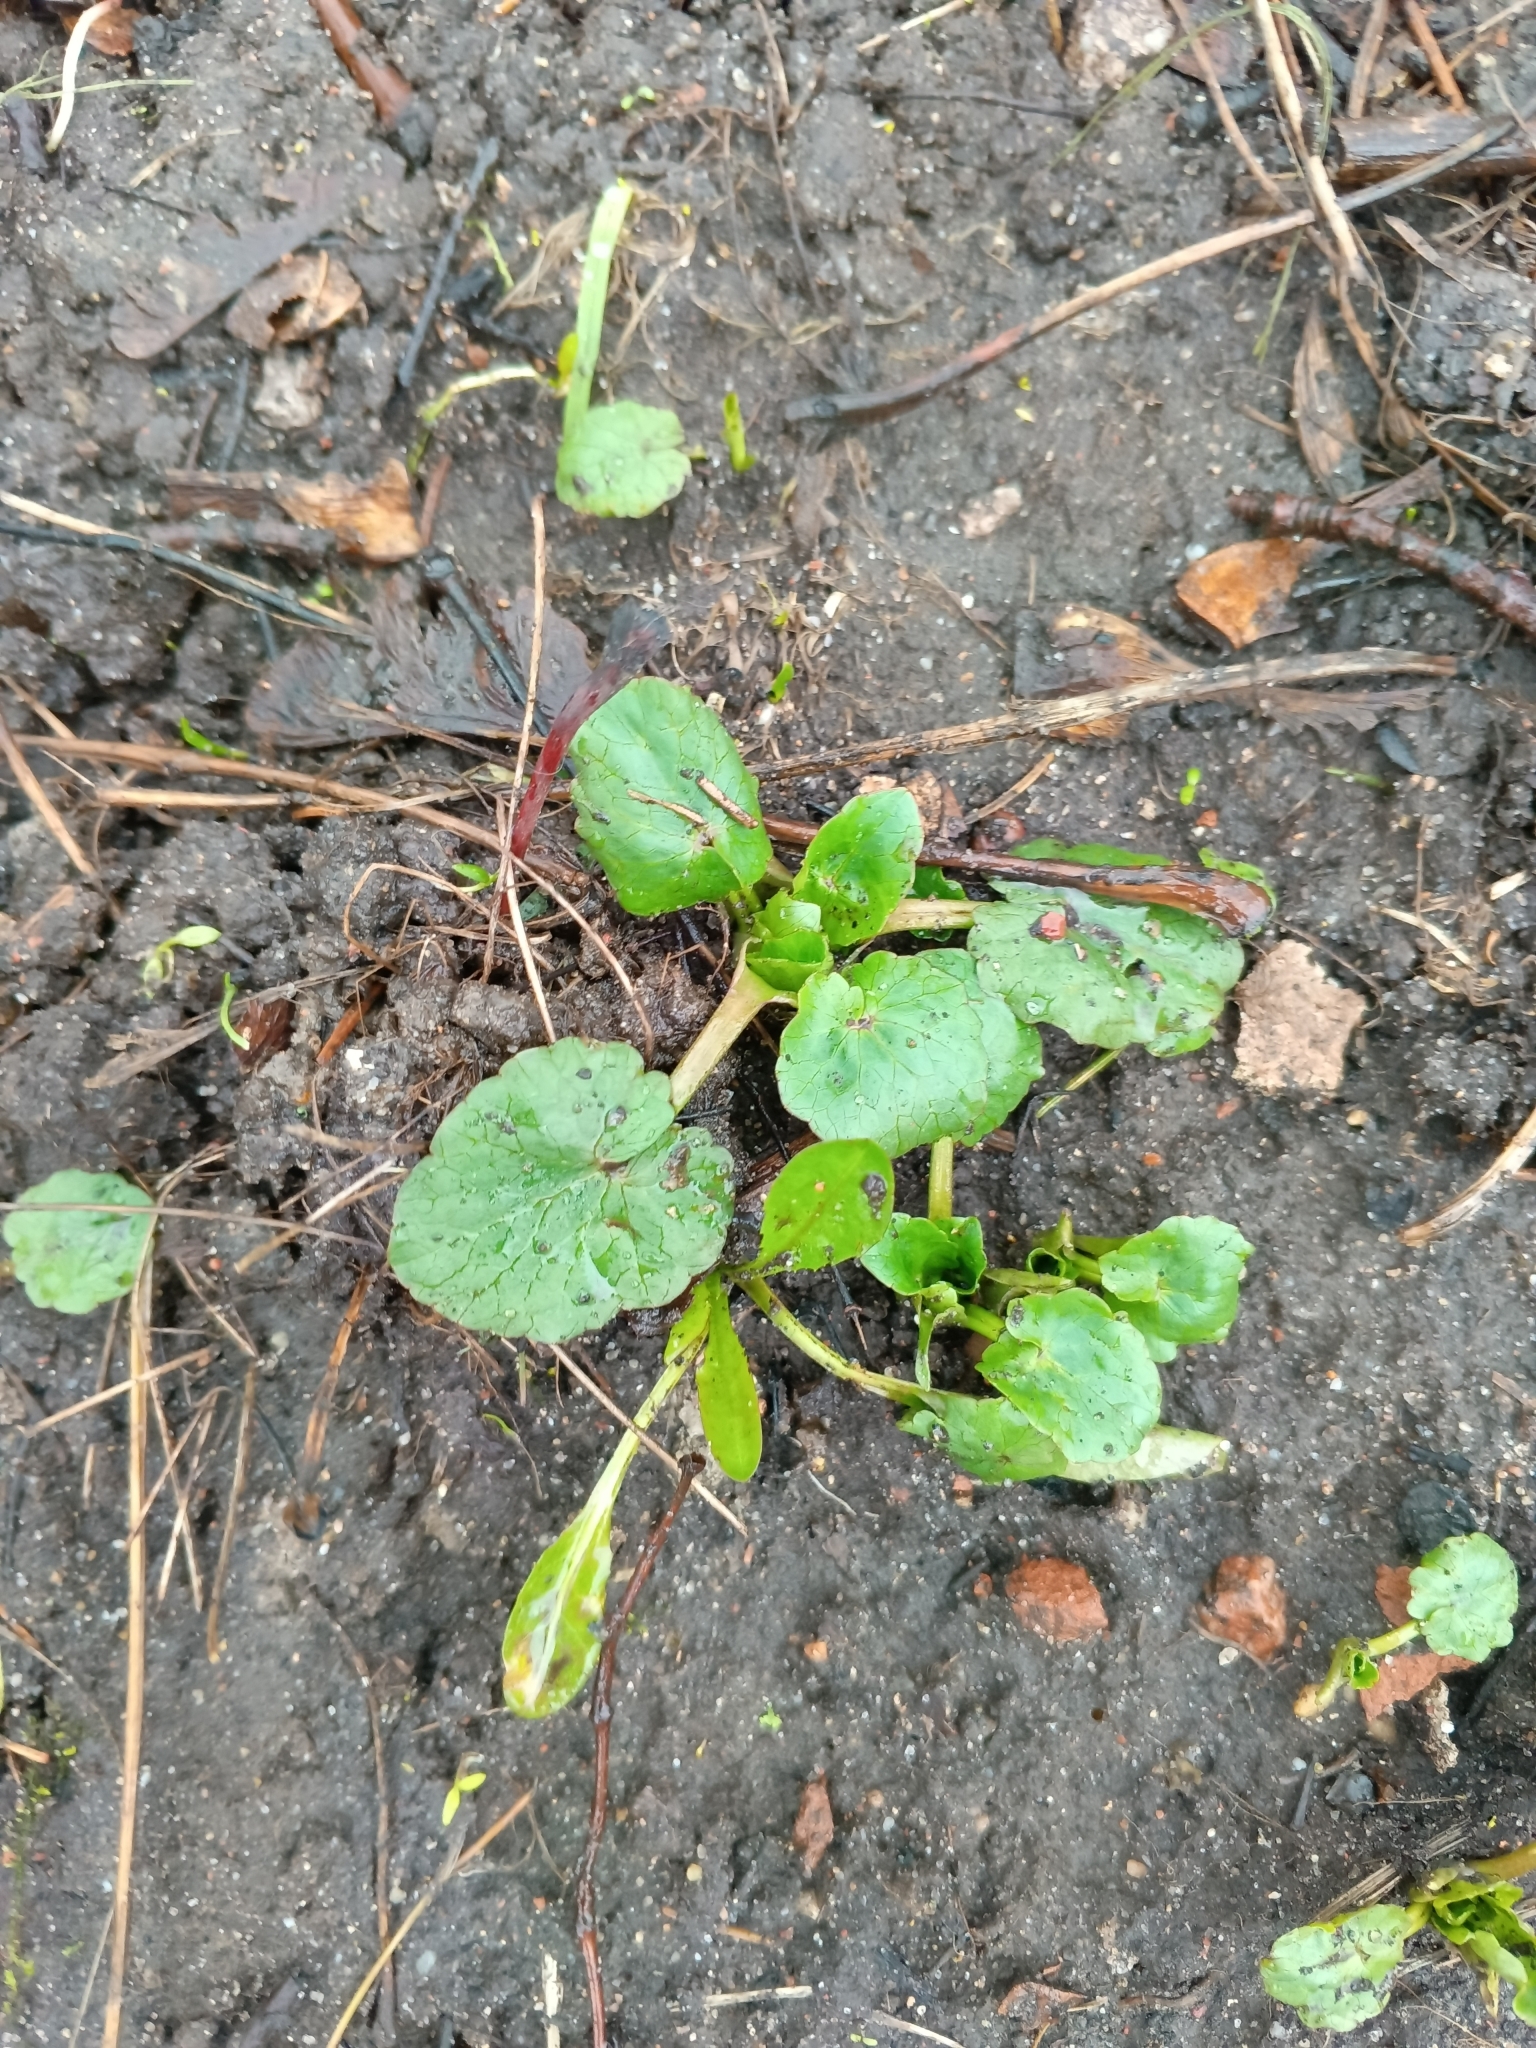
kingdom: Plantae
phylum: Tracheophyta
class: Magnoliopsida
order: Ranunculales
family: Ranunculaceae
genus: Ficaria
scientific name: Ficaria verna
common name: Lesser celandine
